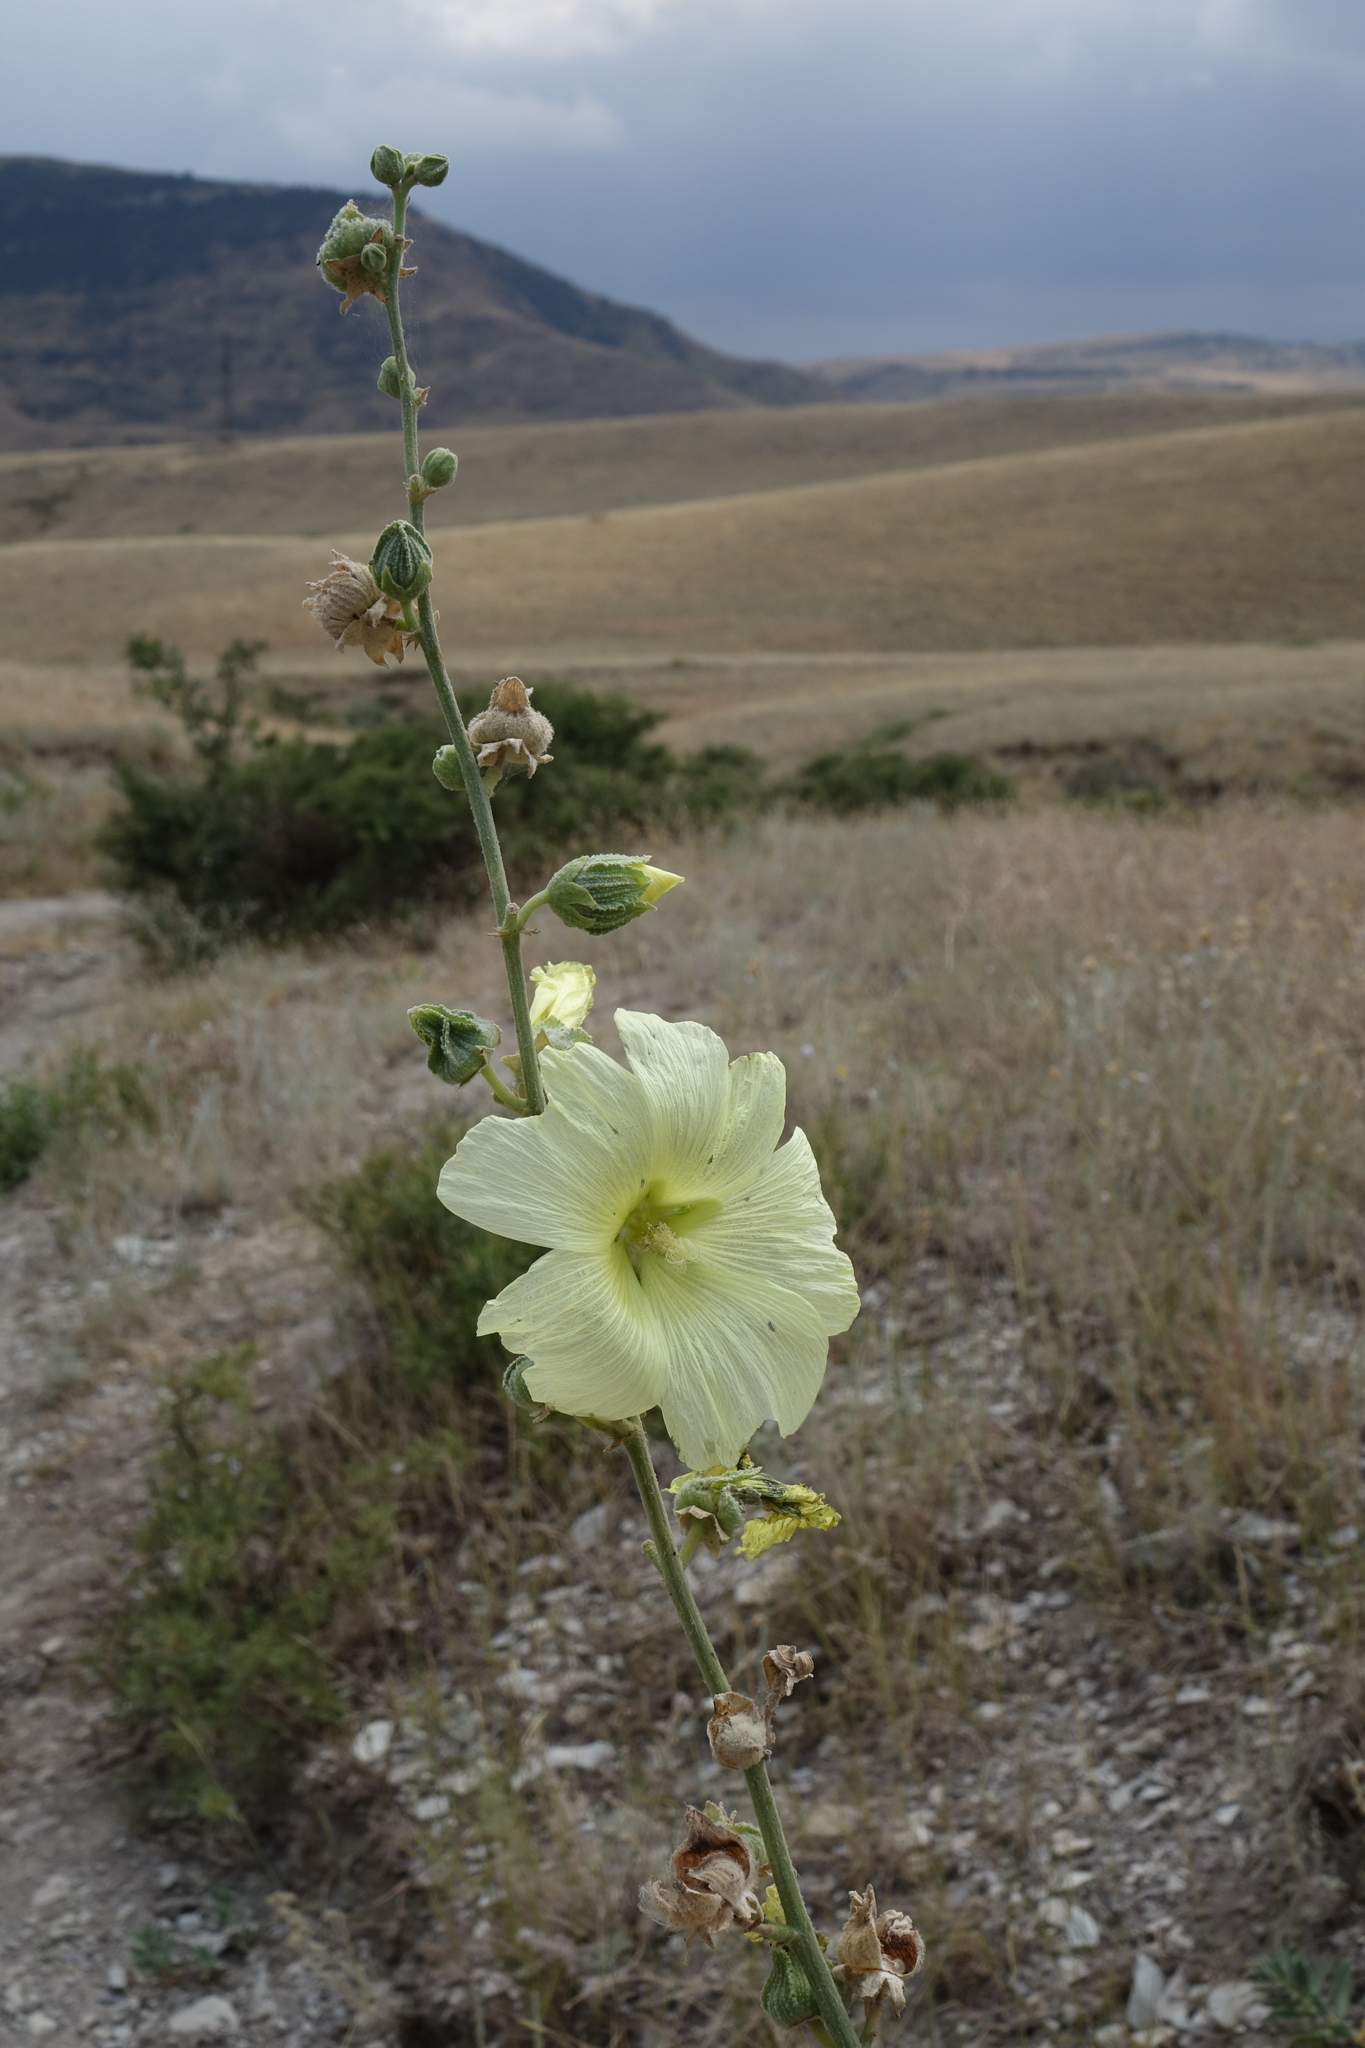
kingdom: Plantae
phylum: Tracheophyta
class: Magnoliopsida
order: Malvales
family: Malvaceae
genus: Alcea
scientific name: Alcea rugosa
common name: Russian hollyhock
